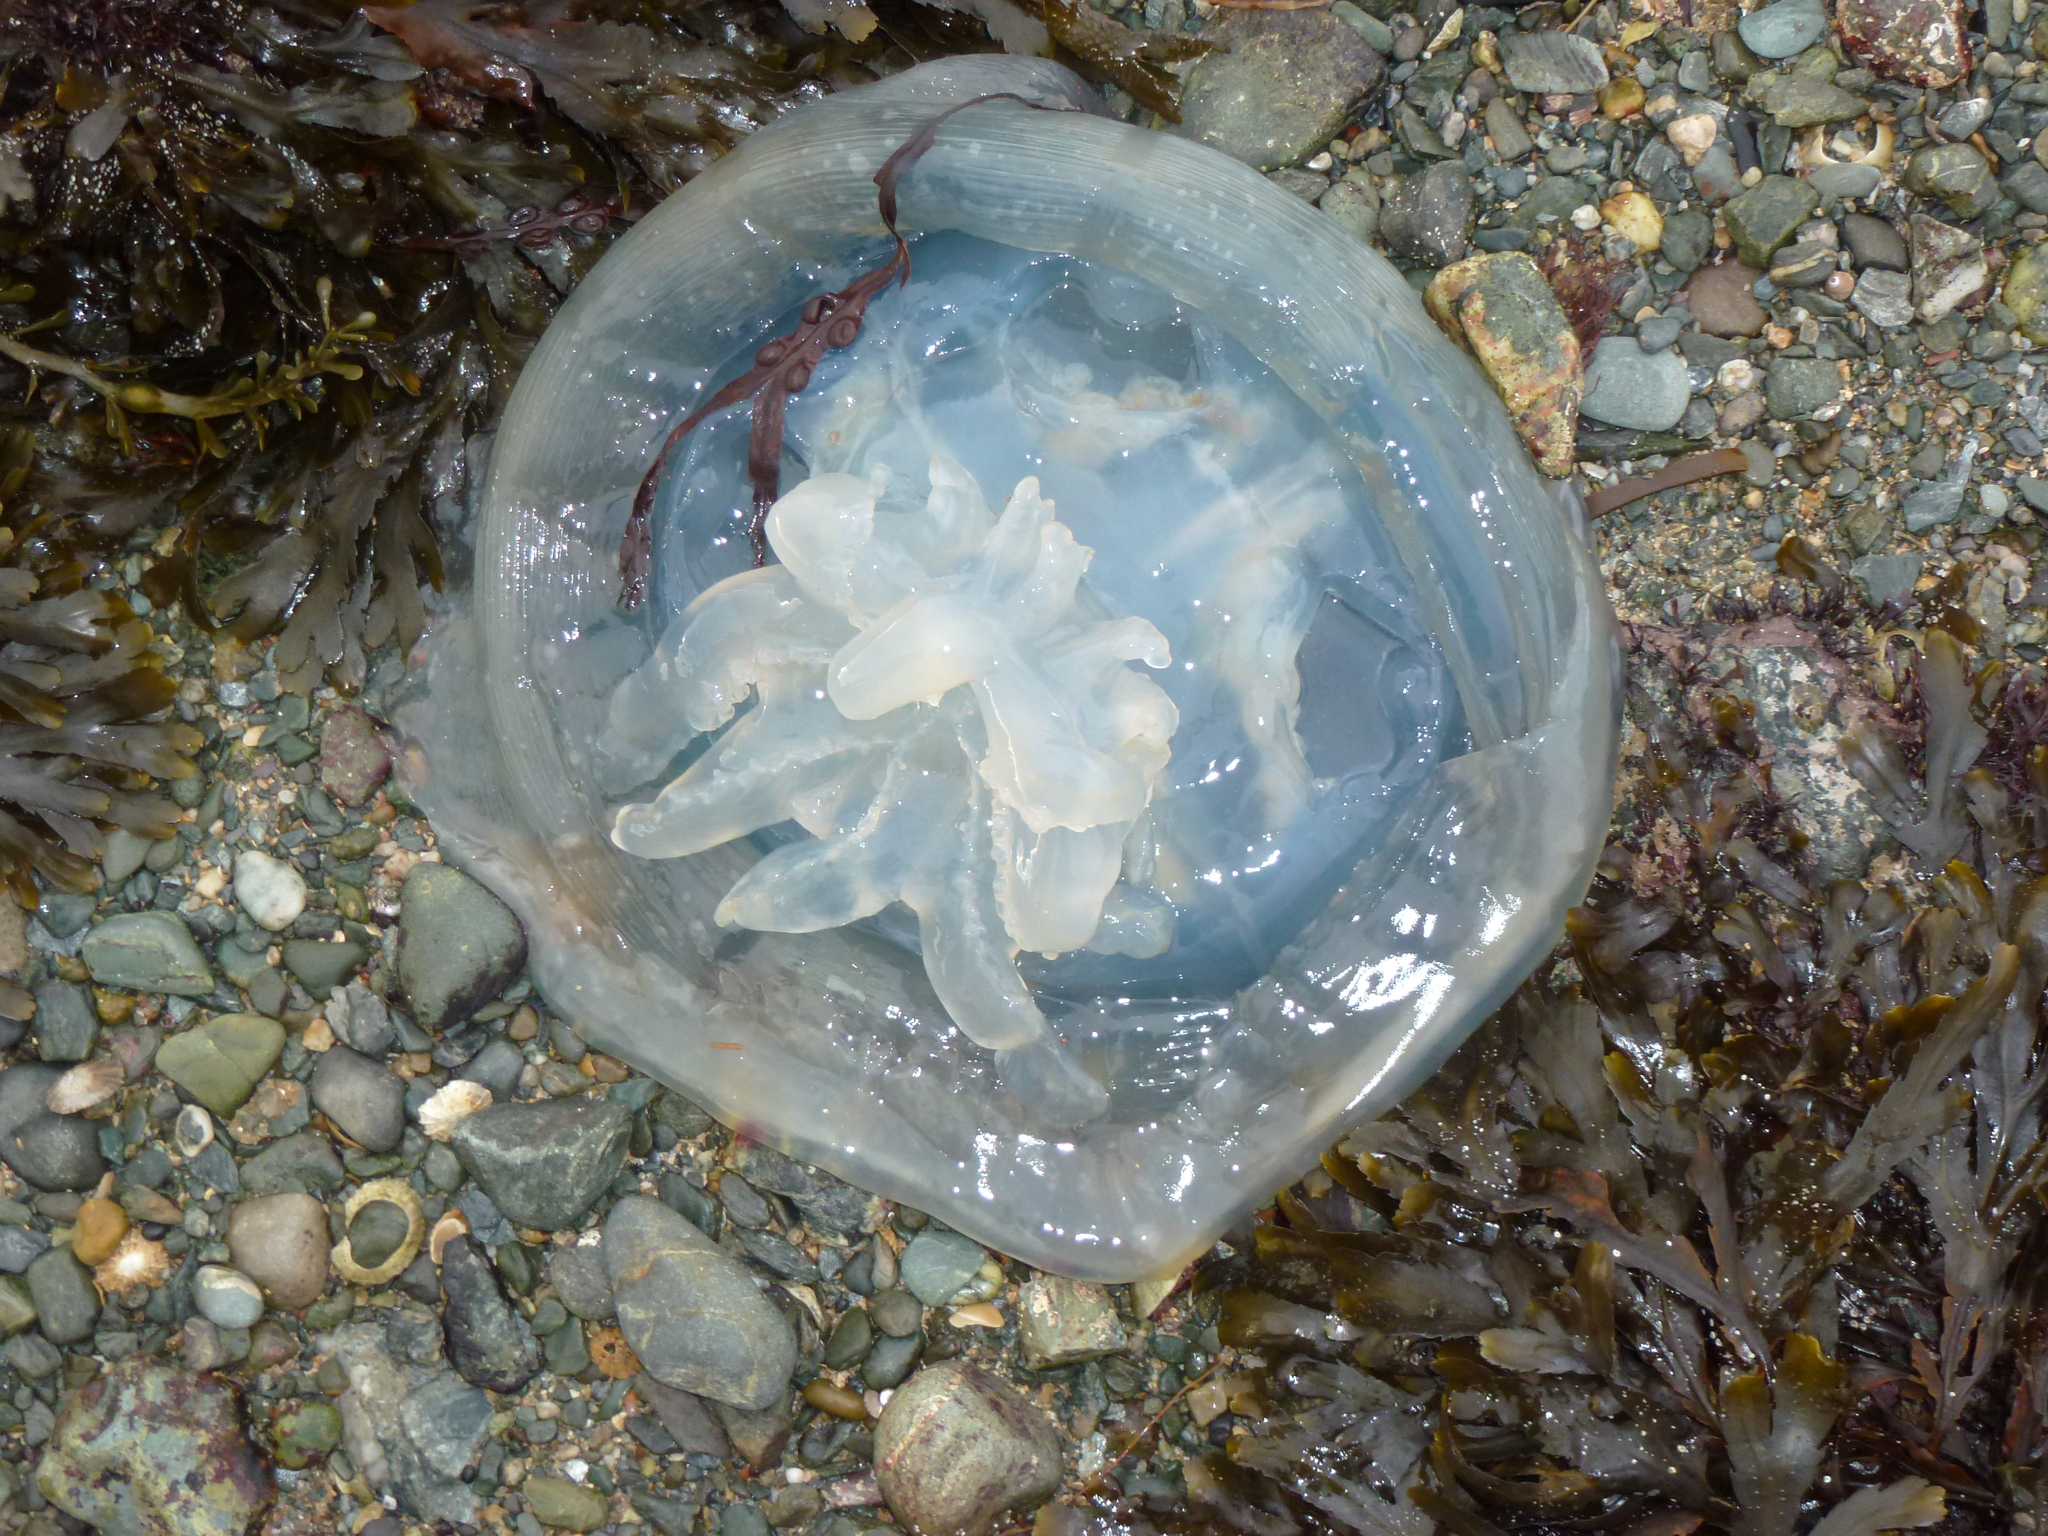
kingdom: Animalia
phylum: Cnidaria
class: Scyphozoa
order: Rhizostomeae
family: Rhizostomatidae
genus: Rhizostoma
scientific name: Rhizostoma octopus
